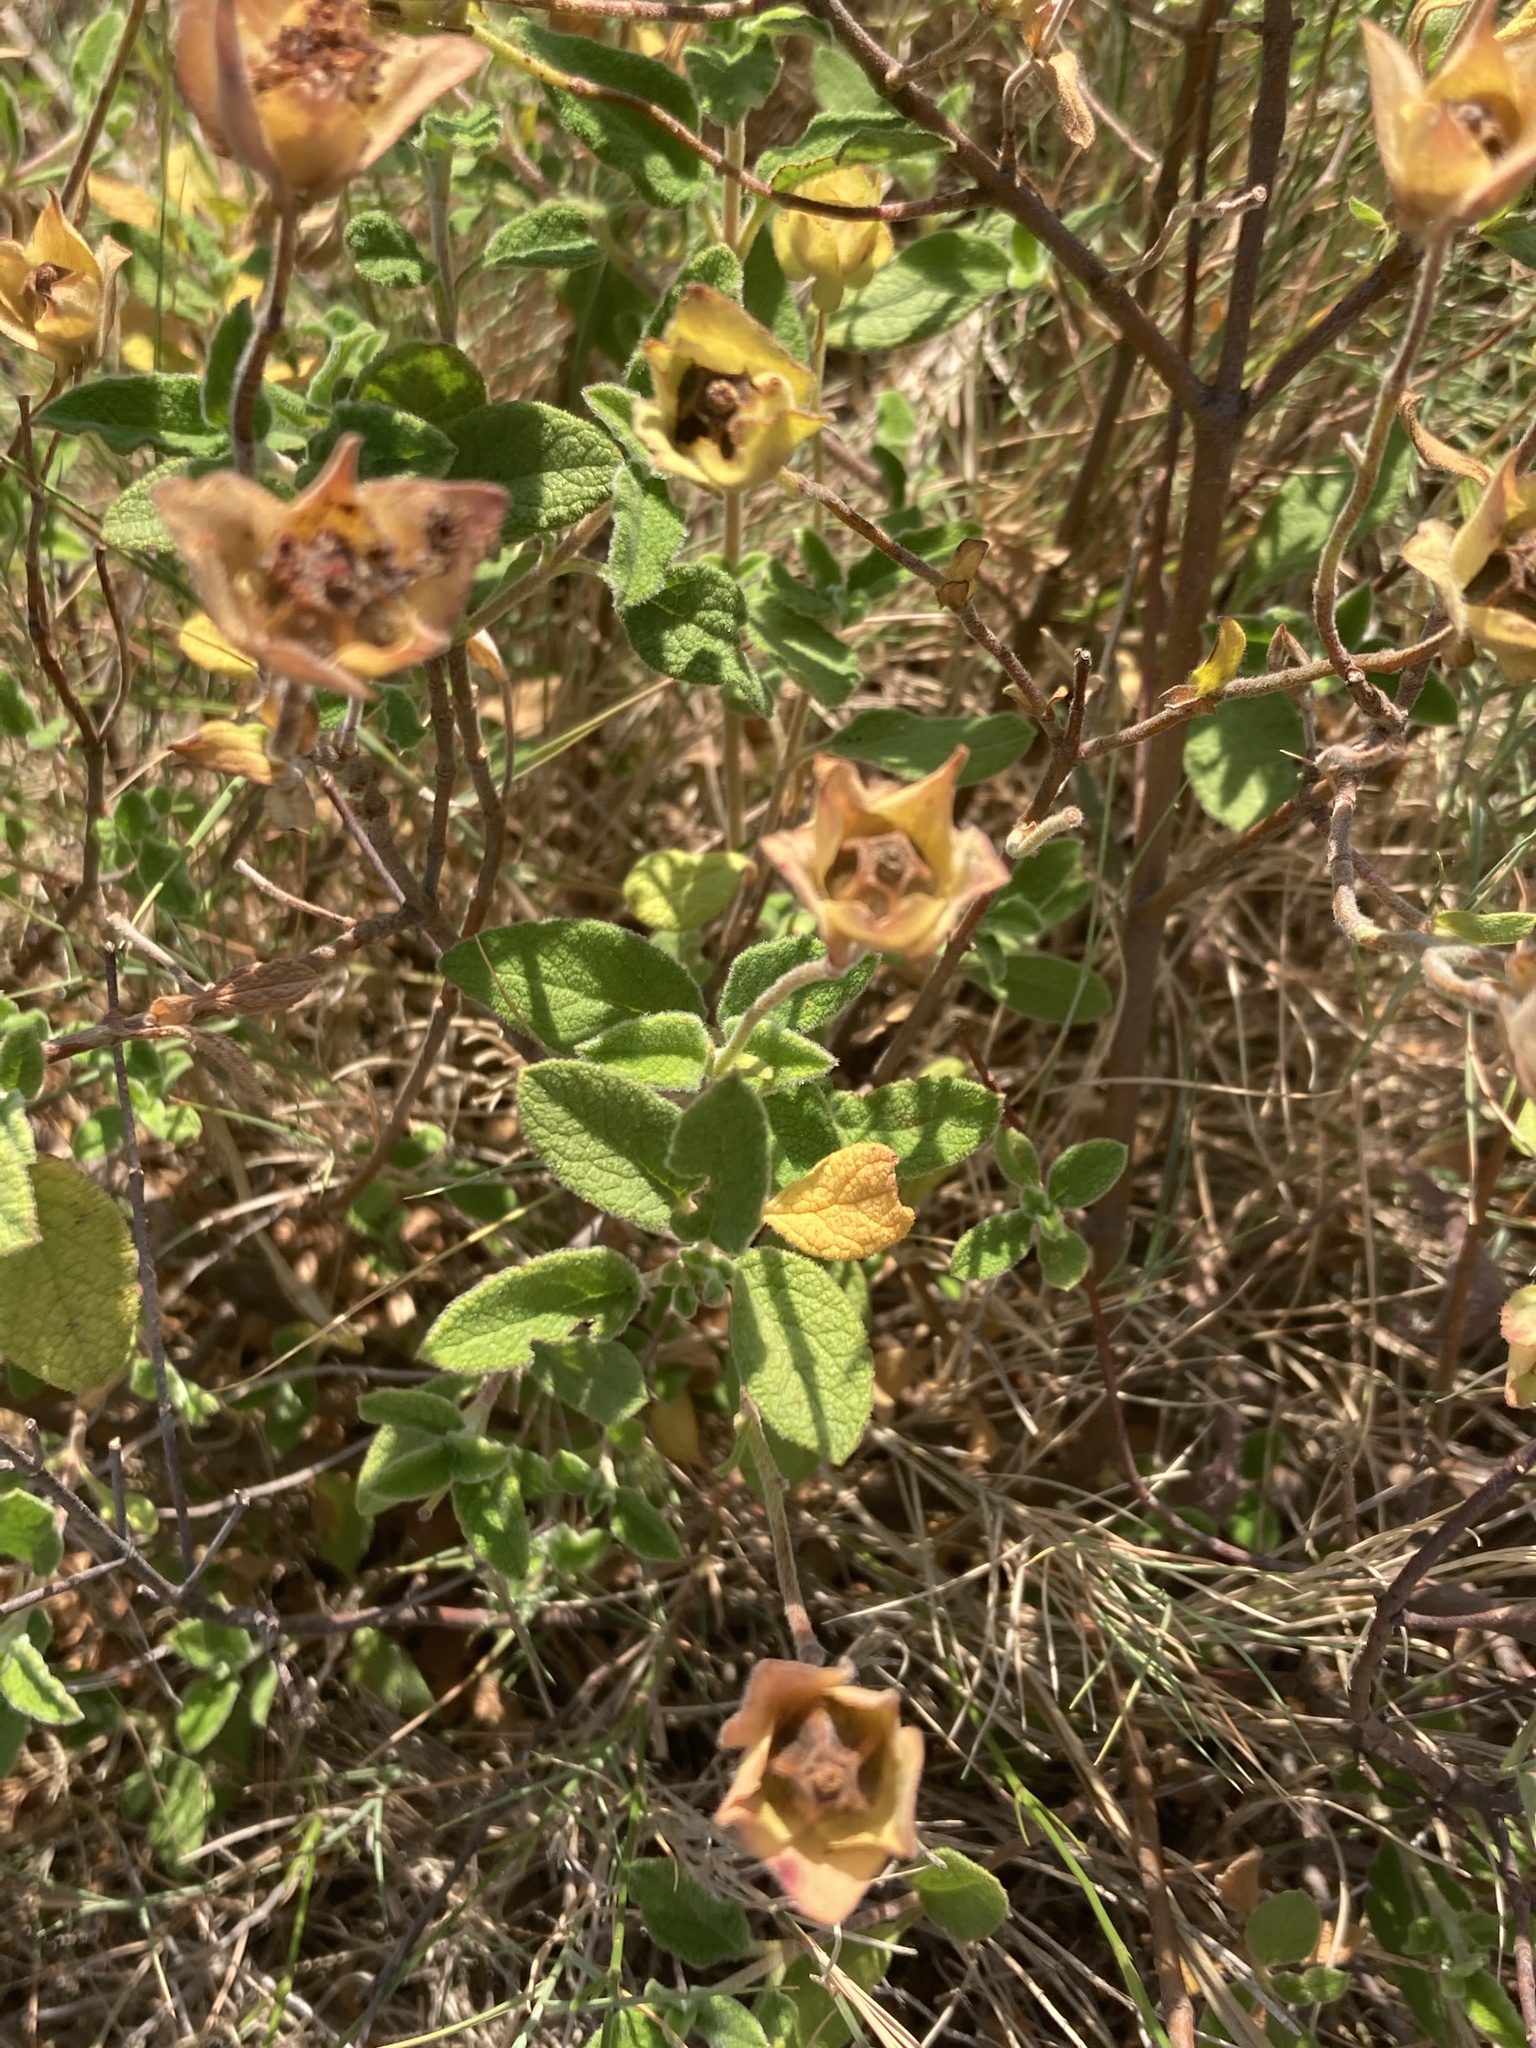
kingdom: Plantae
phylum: Tracheophyta
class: Magnoliopsida
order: Malvales
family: Cistaceae
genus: Cistus
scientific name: Cistus salviifolius
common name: Salvia cistus
